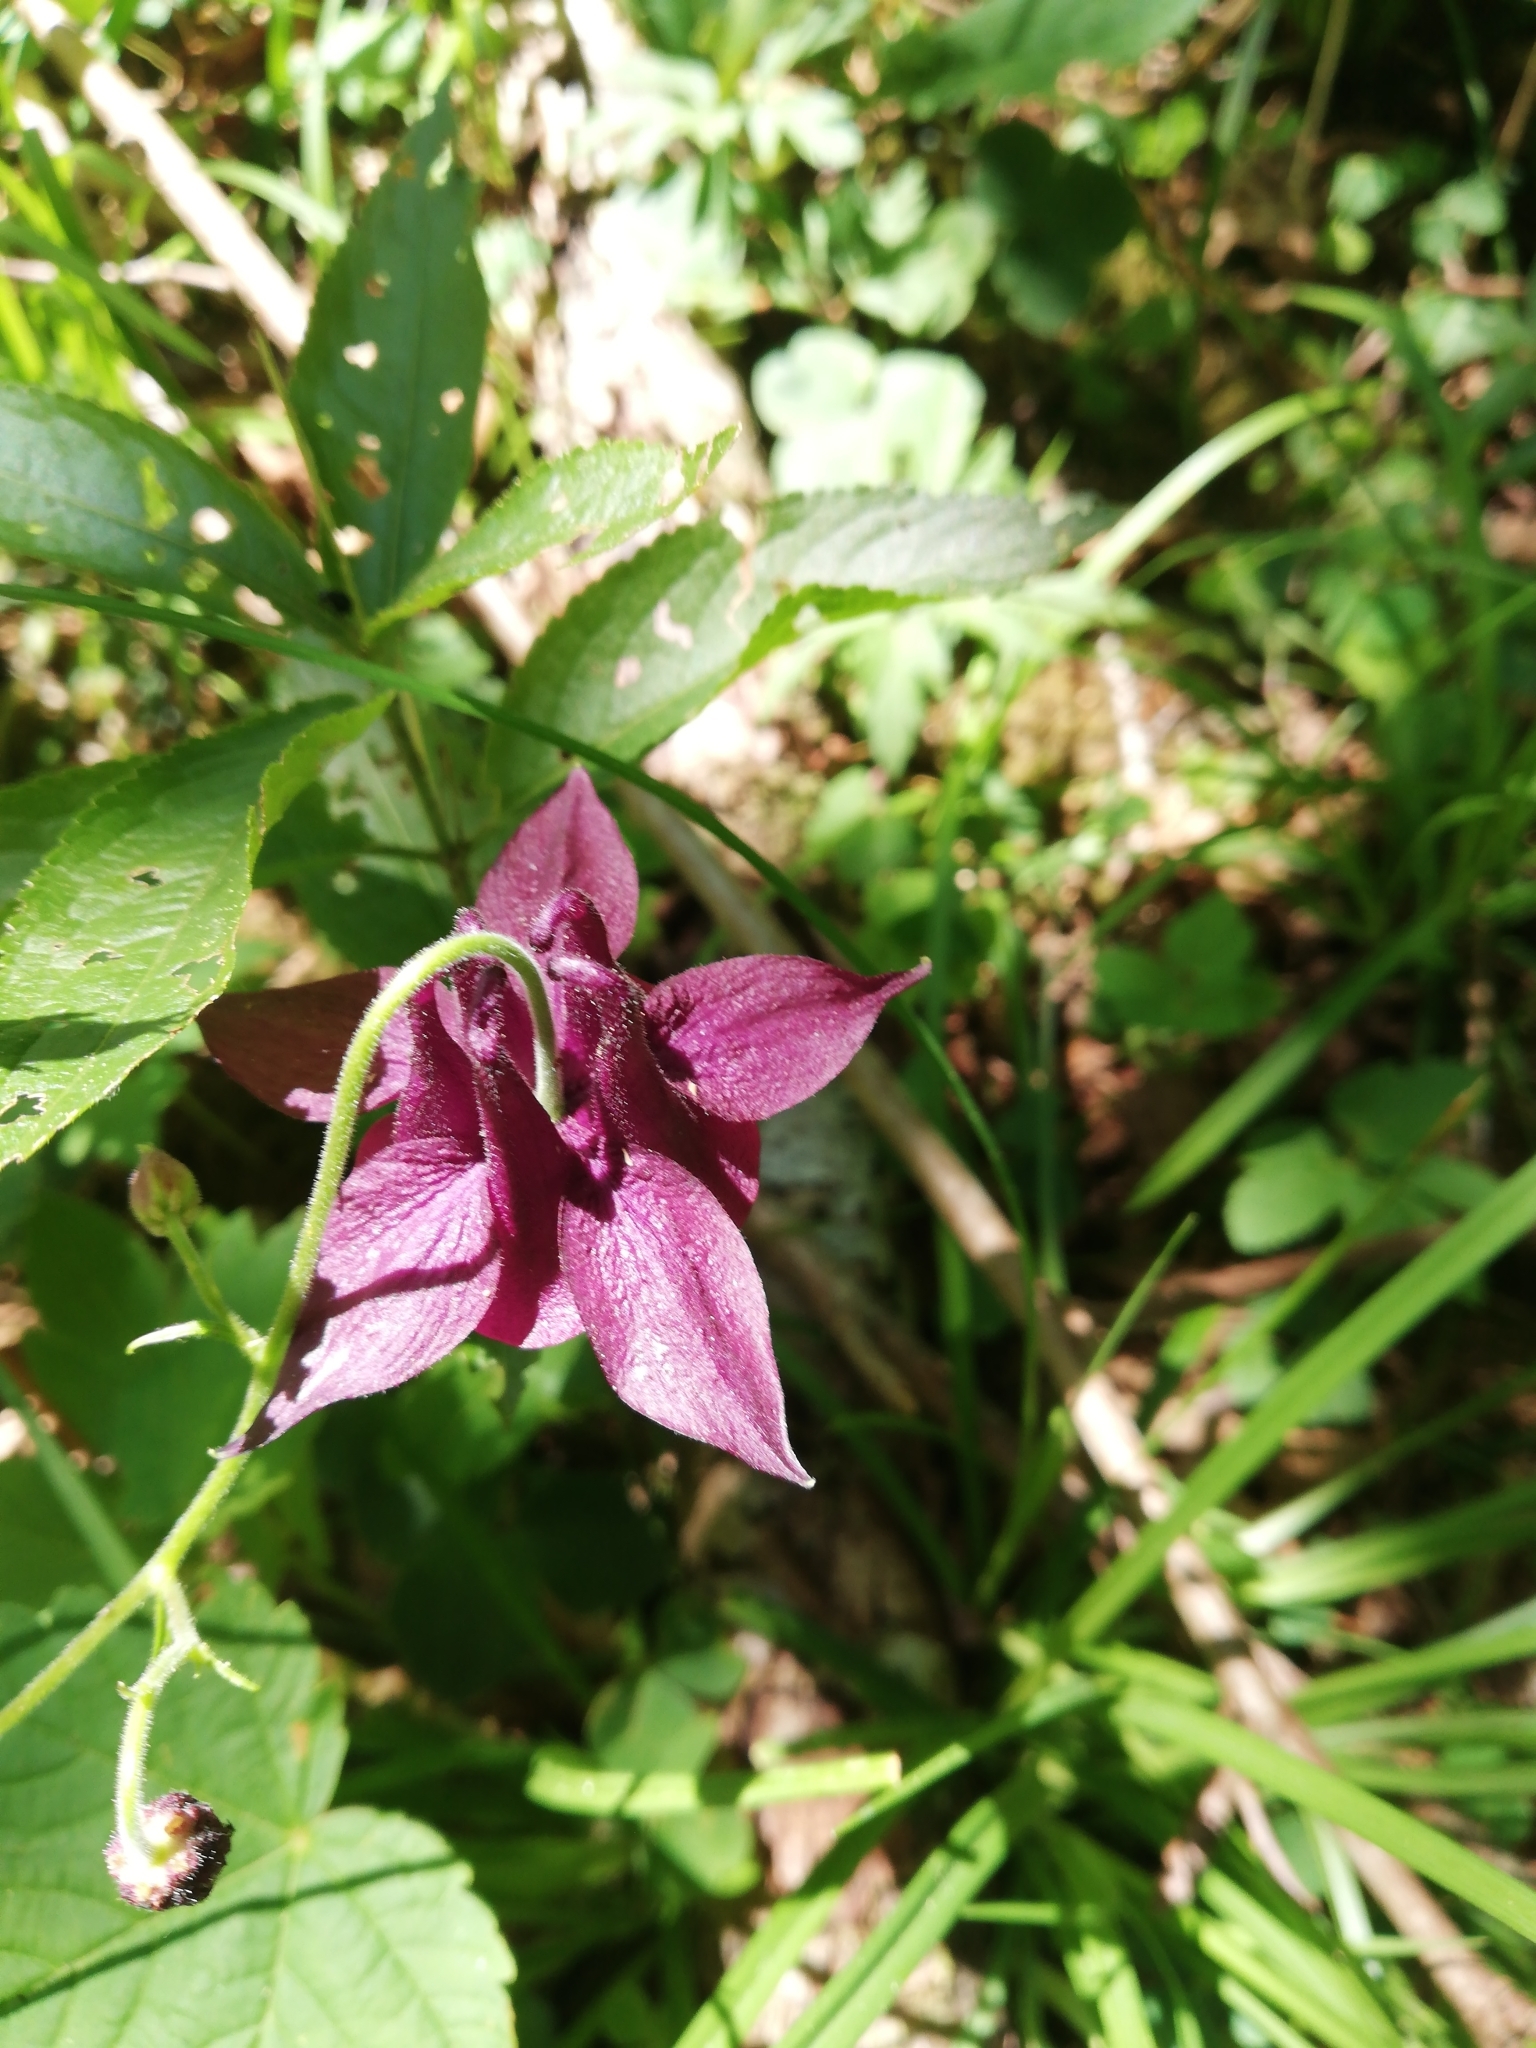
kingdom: Plantae
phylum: Tracheophyta
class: Magnoliopsida
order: Ranunculales
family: Ranunculaceae
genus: Aquilegia
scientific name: Aquilegia atrata
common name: Dark columbine
